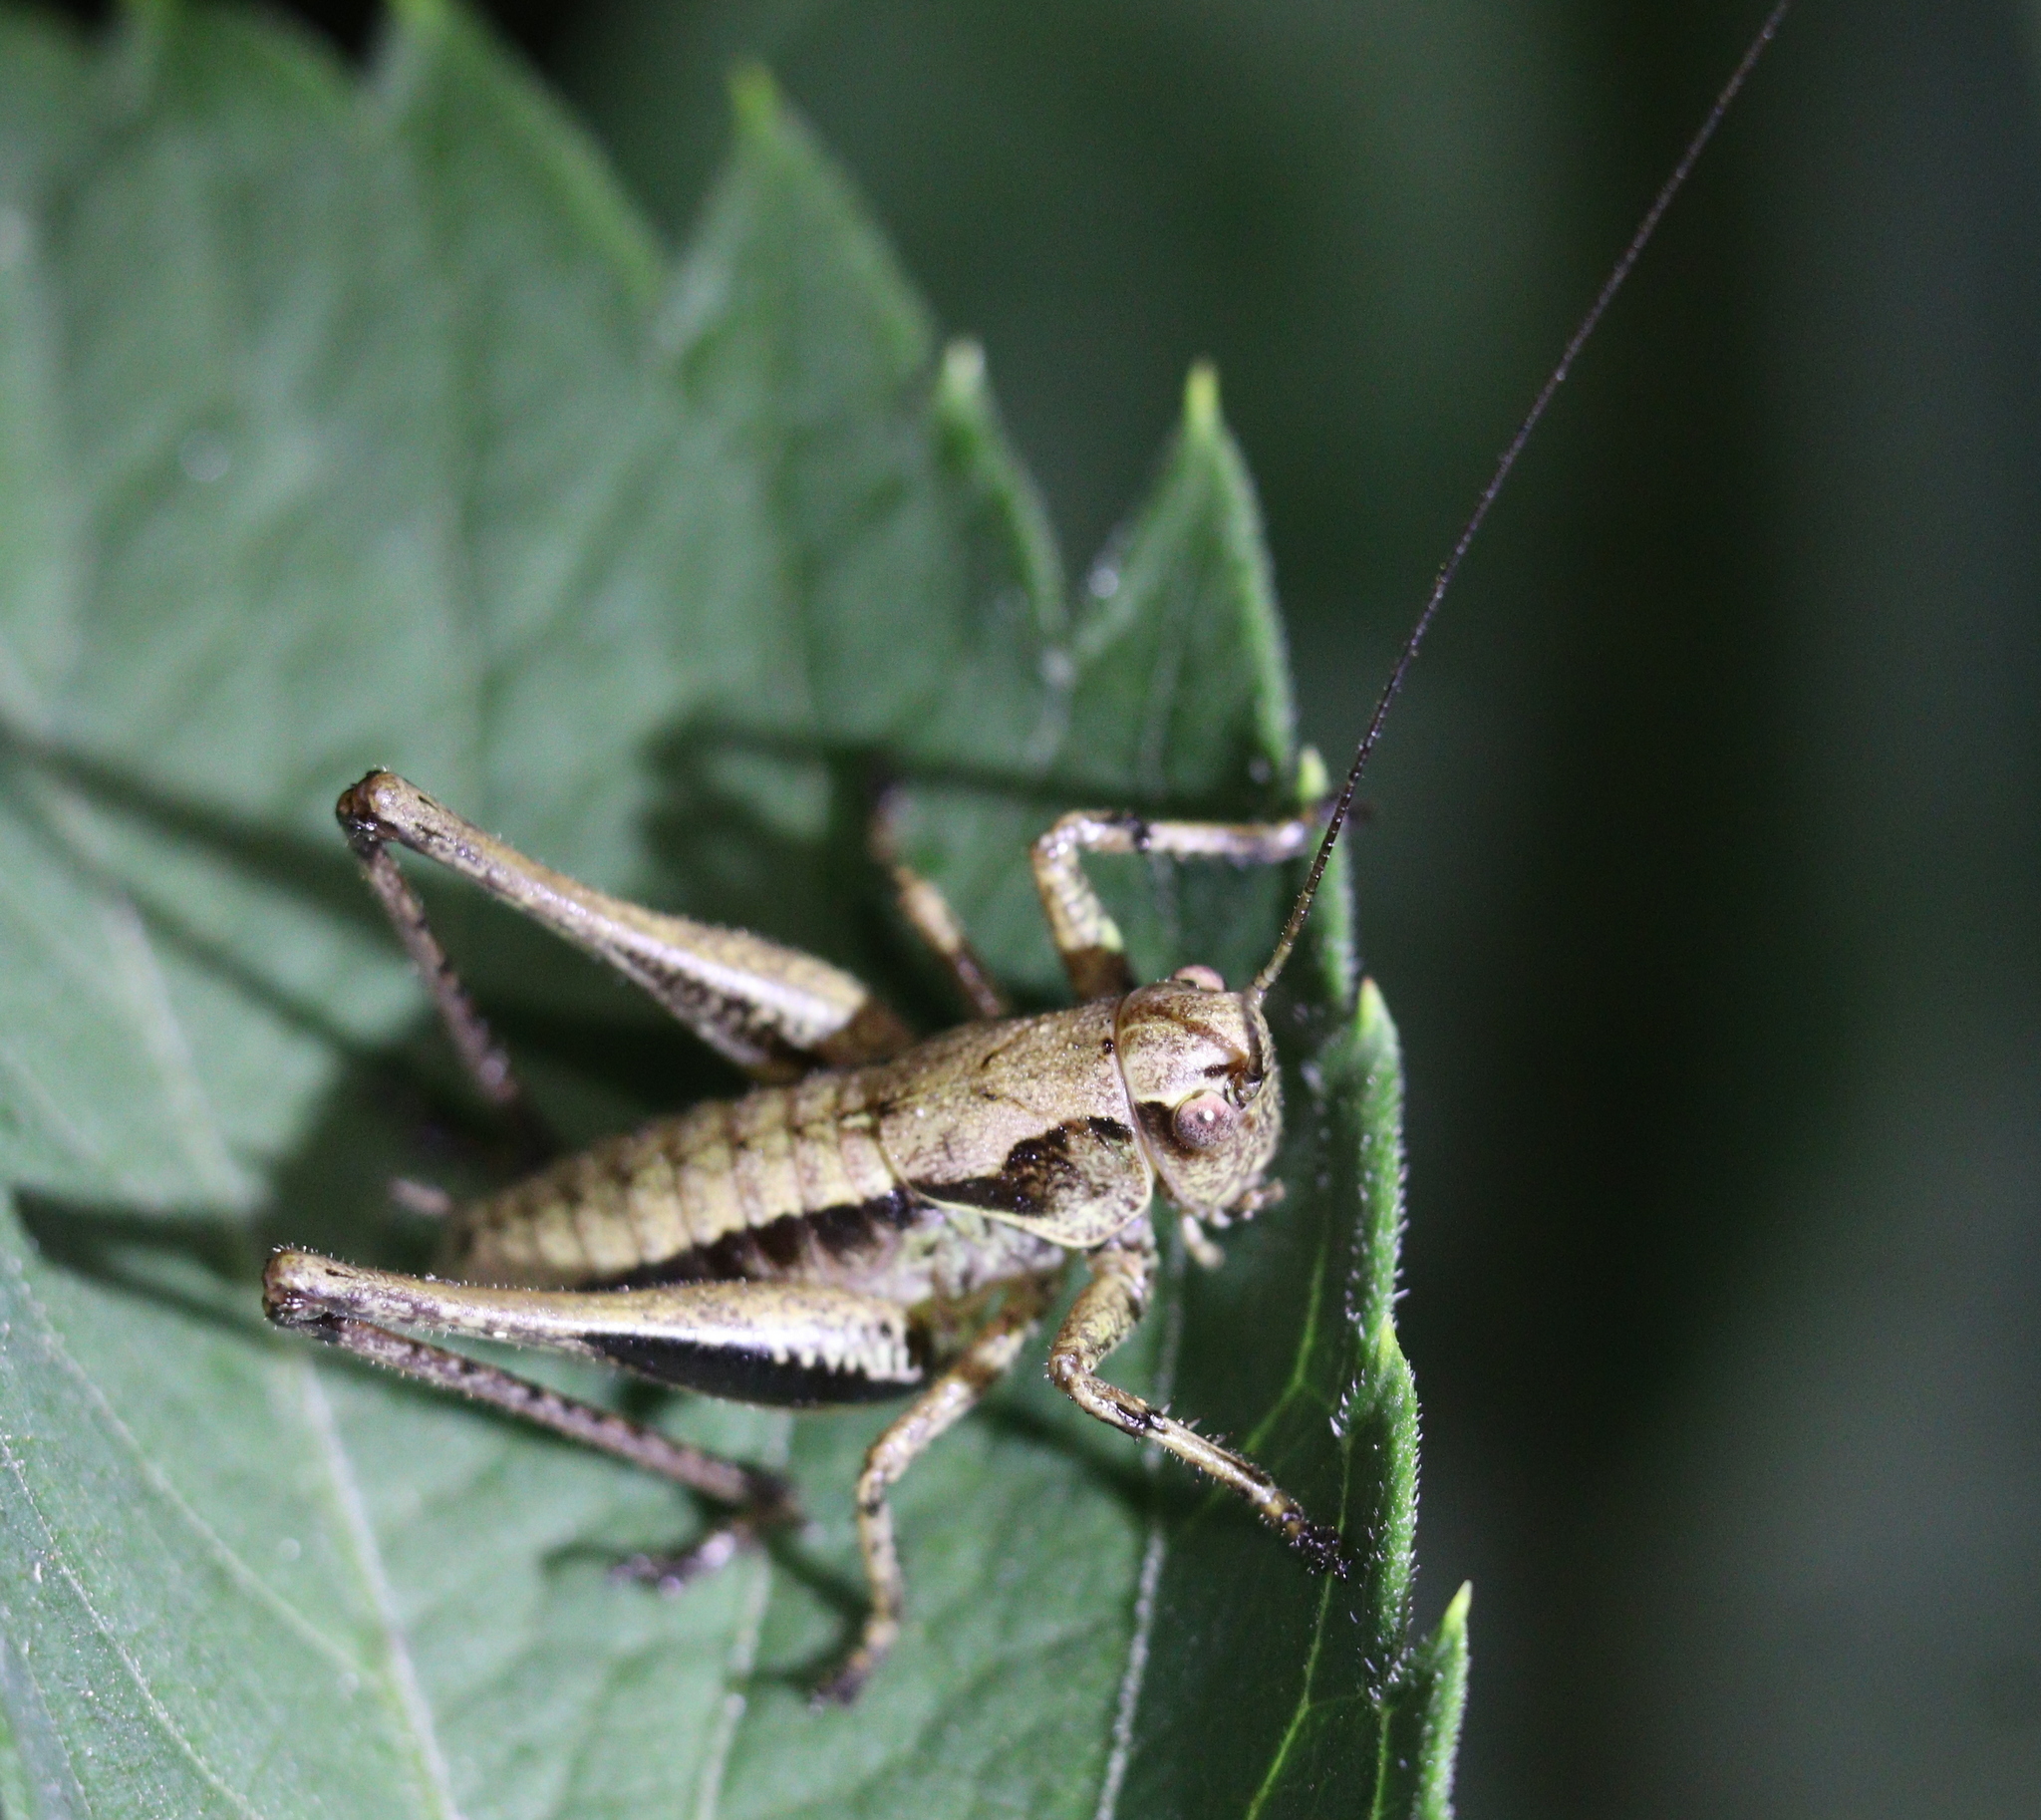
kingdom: Animalia
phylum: Arthropoda
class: Insecta
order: Orthoptera
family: Tettigoniidae
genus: Pholidoptera
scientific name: Pholidoptera griseoaptera
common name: Dark bush-cricket
